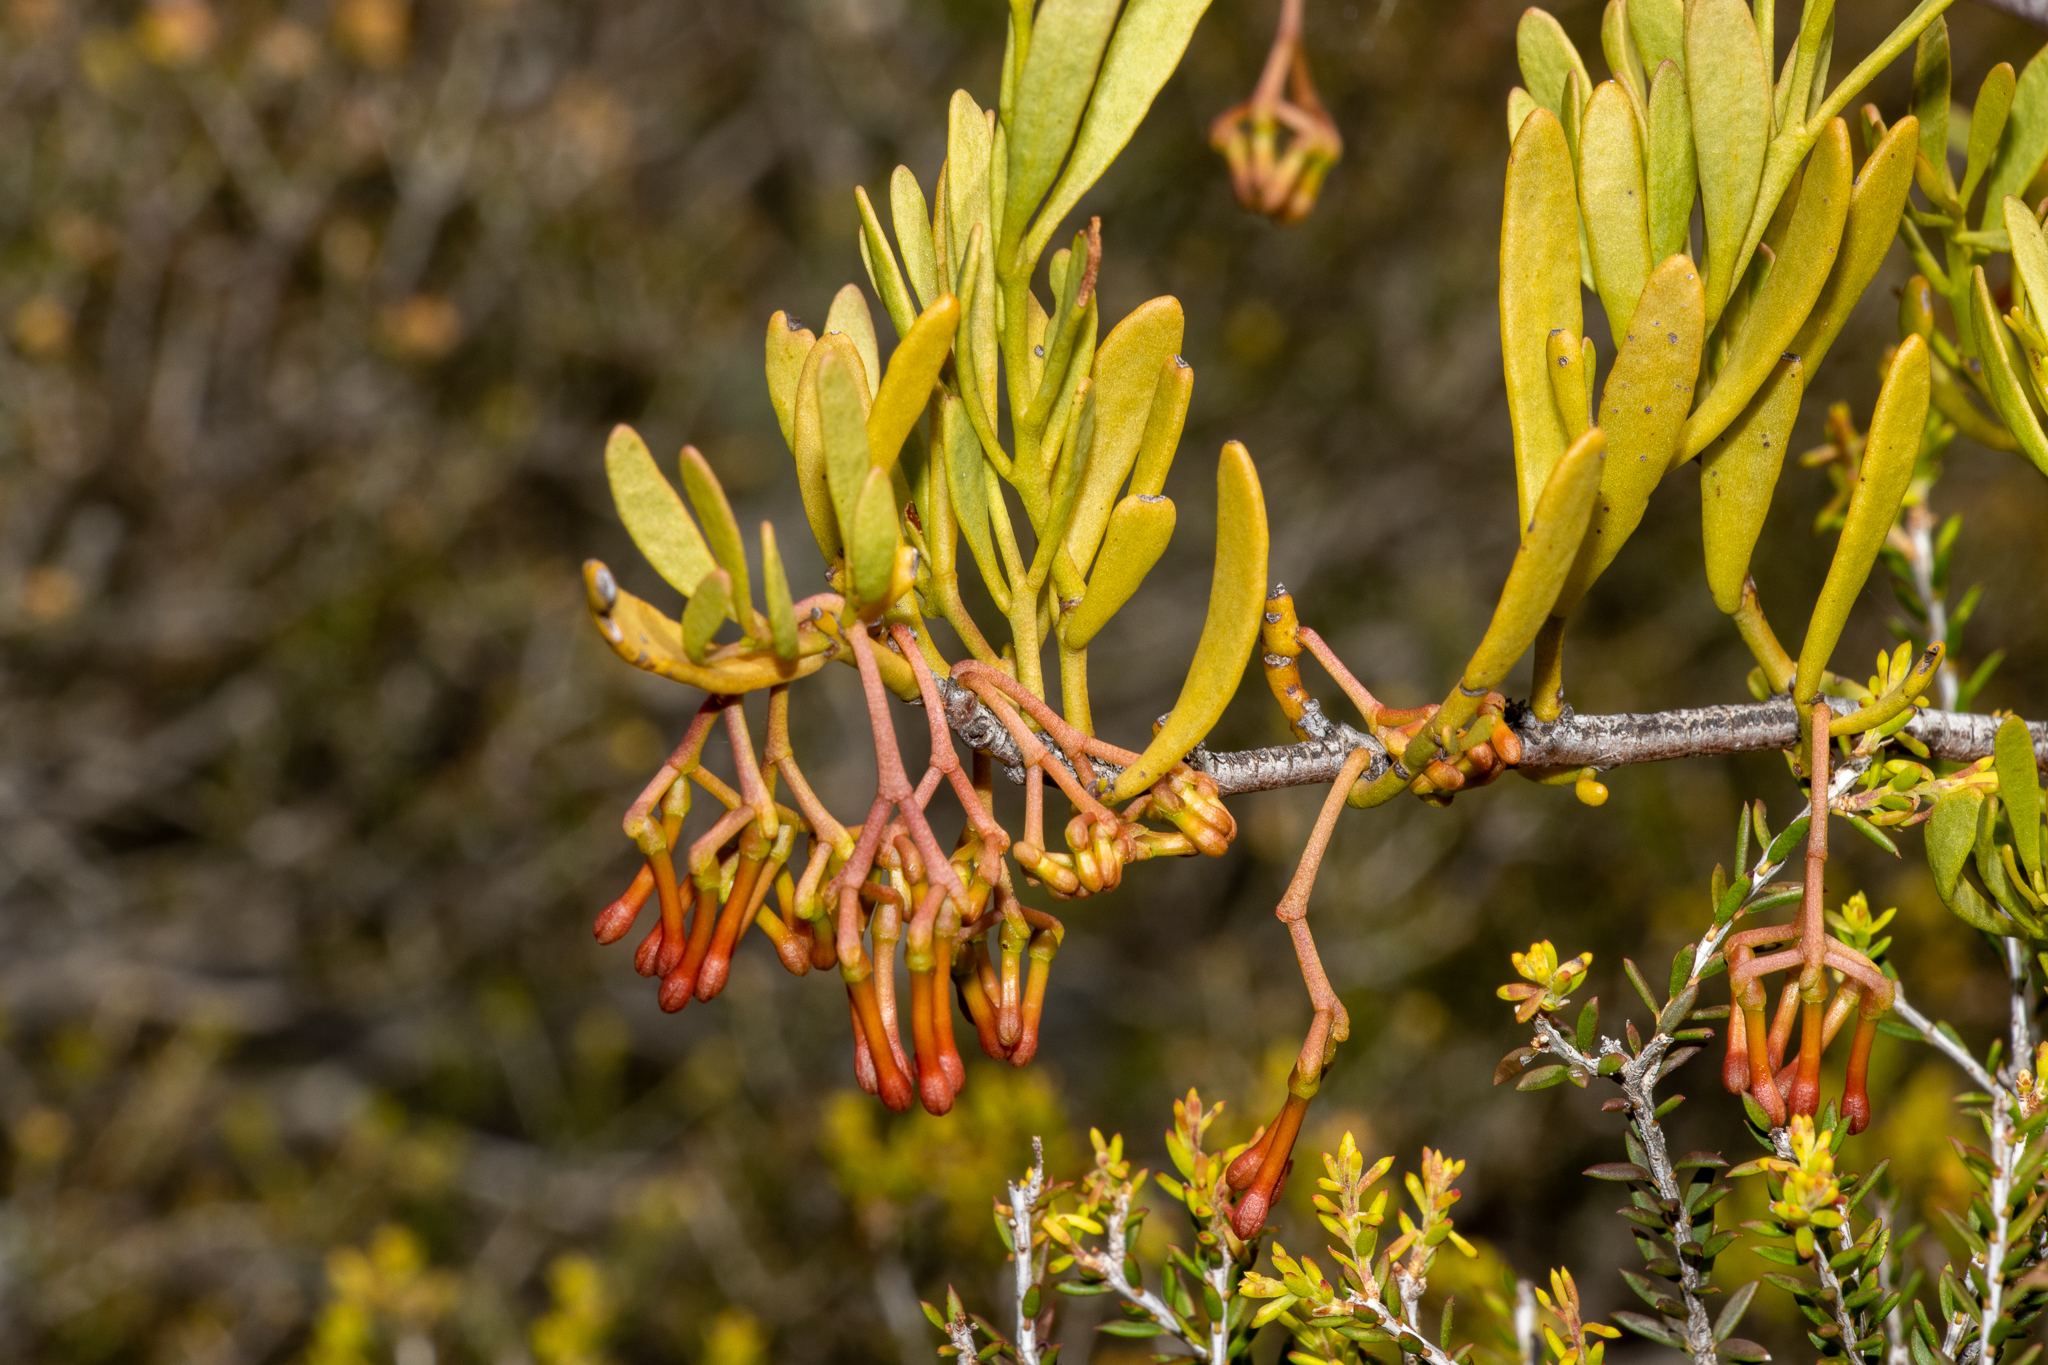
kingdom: Plantae
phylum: Tracheophyta
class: Magnoliopsida
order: Santalales
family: Loranthaceae
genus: Amyema
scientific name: Amyema melaleucae
